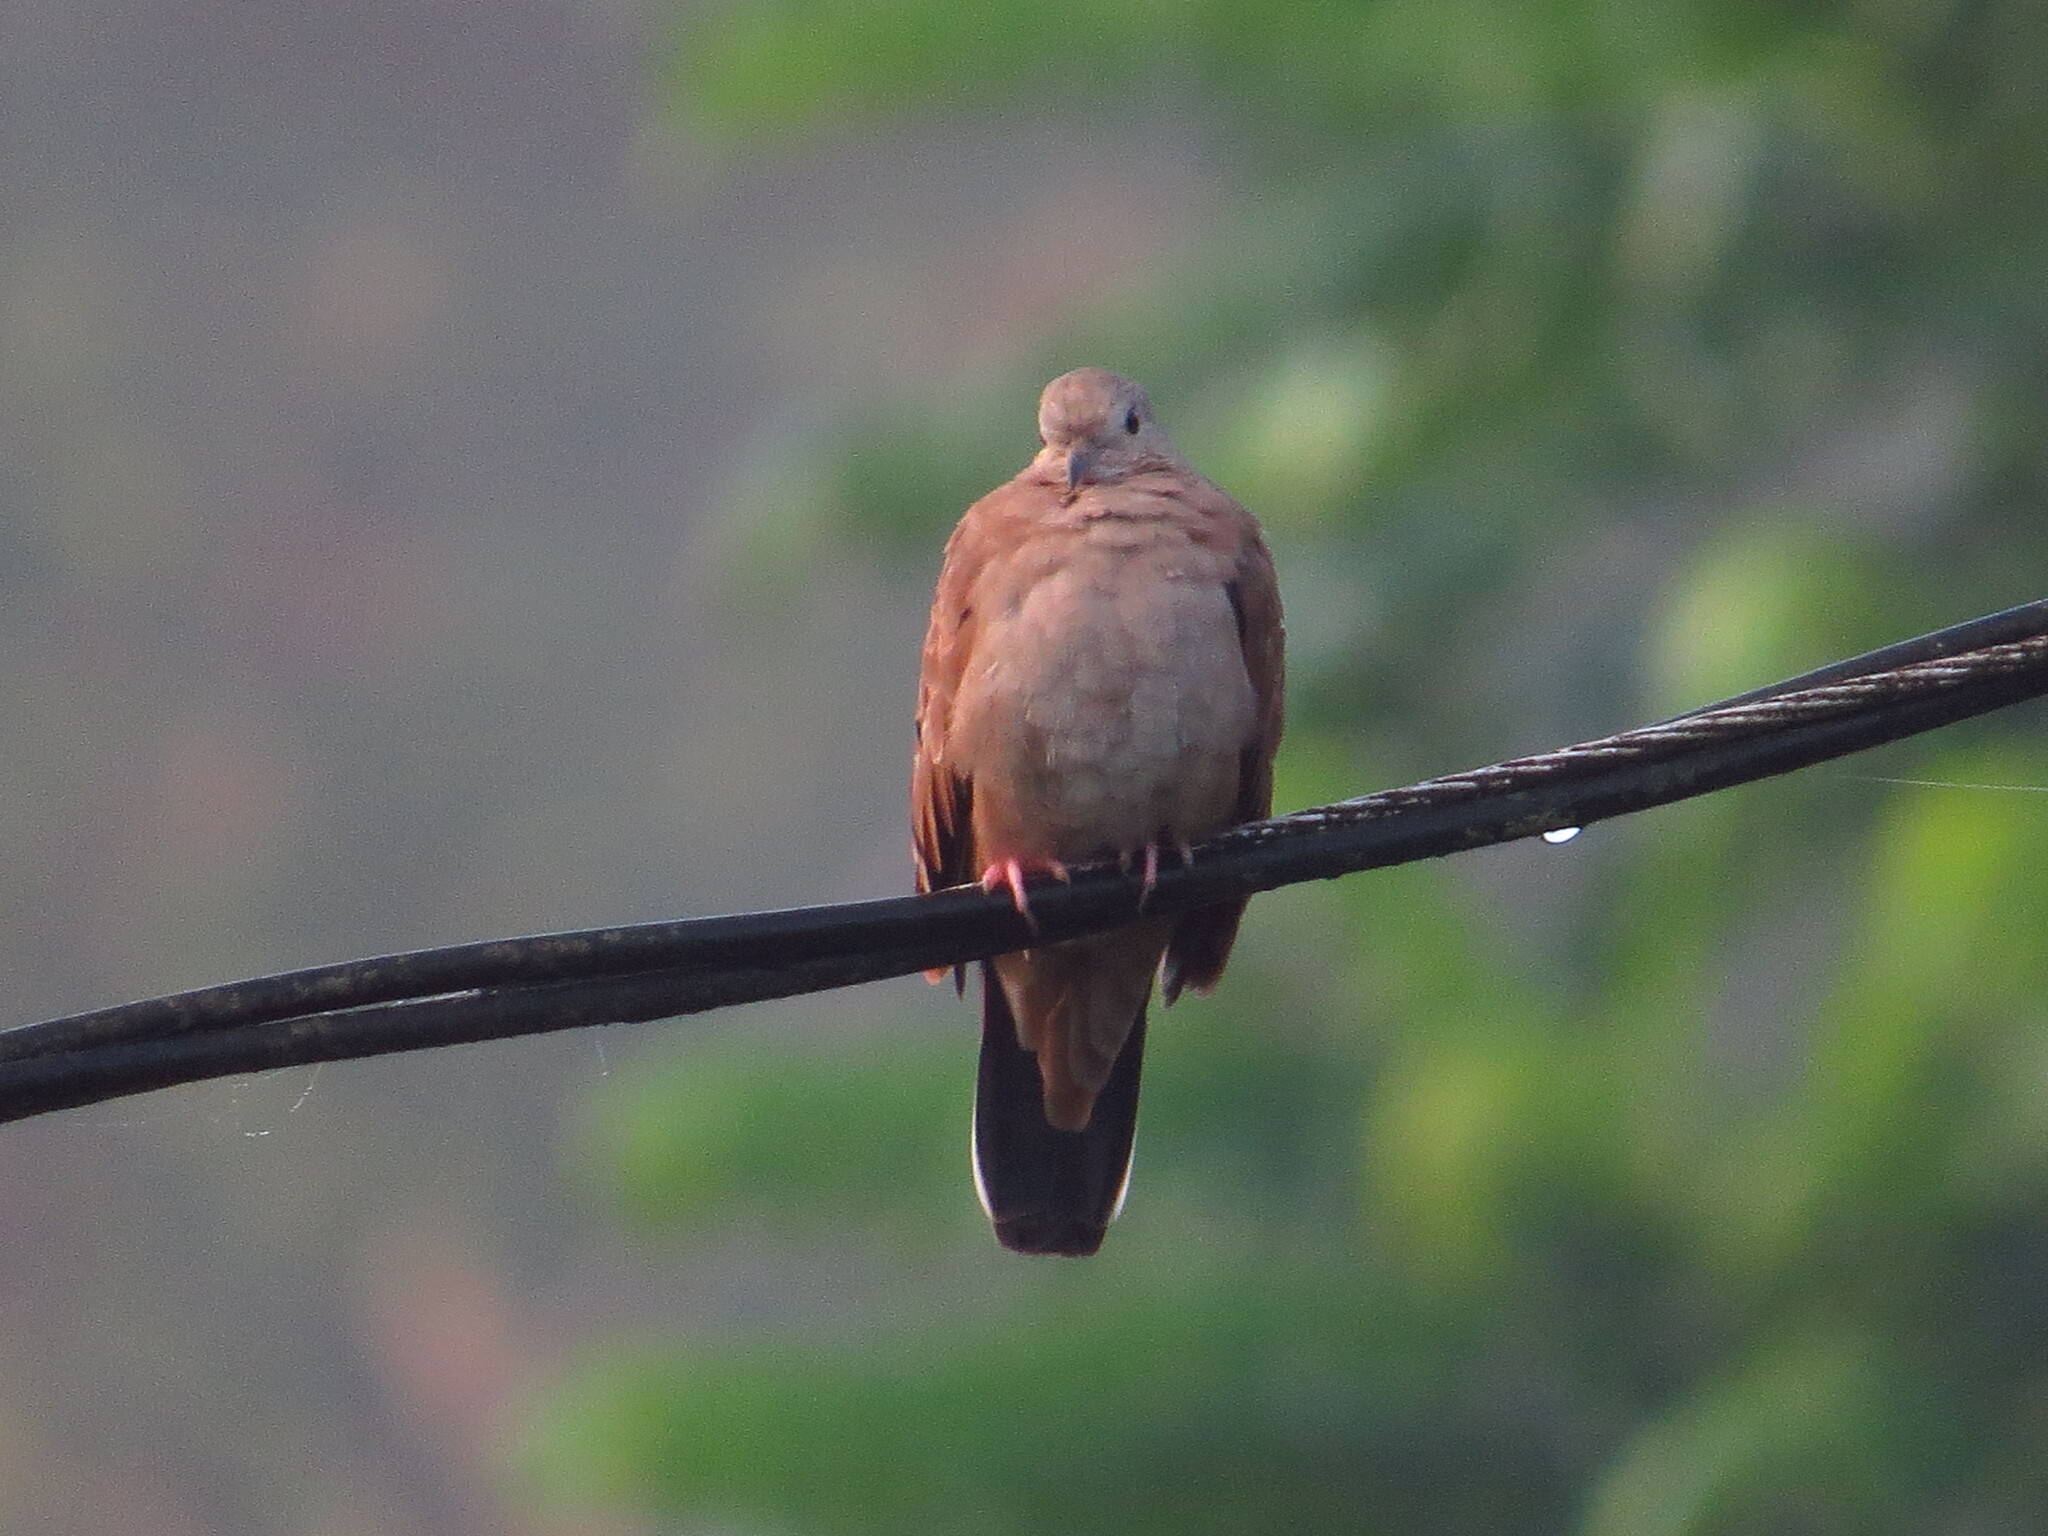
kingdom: Animalia
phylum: Chordata
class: Aves
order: Columbiformes
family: Columbidae
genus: Columbina
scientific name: Columbina talpacoti
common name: Ruddy ground dove
